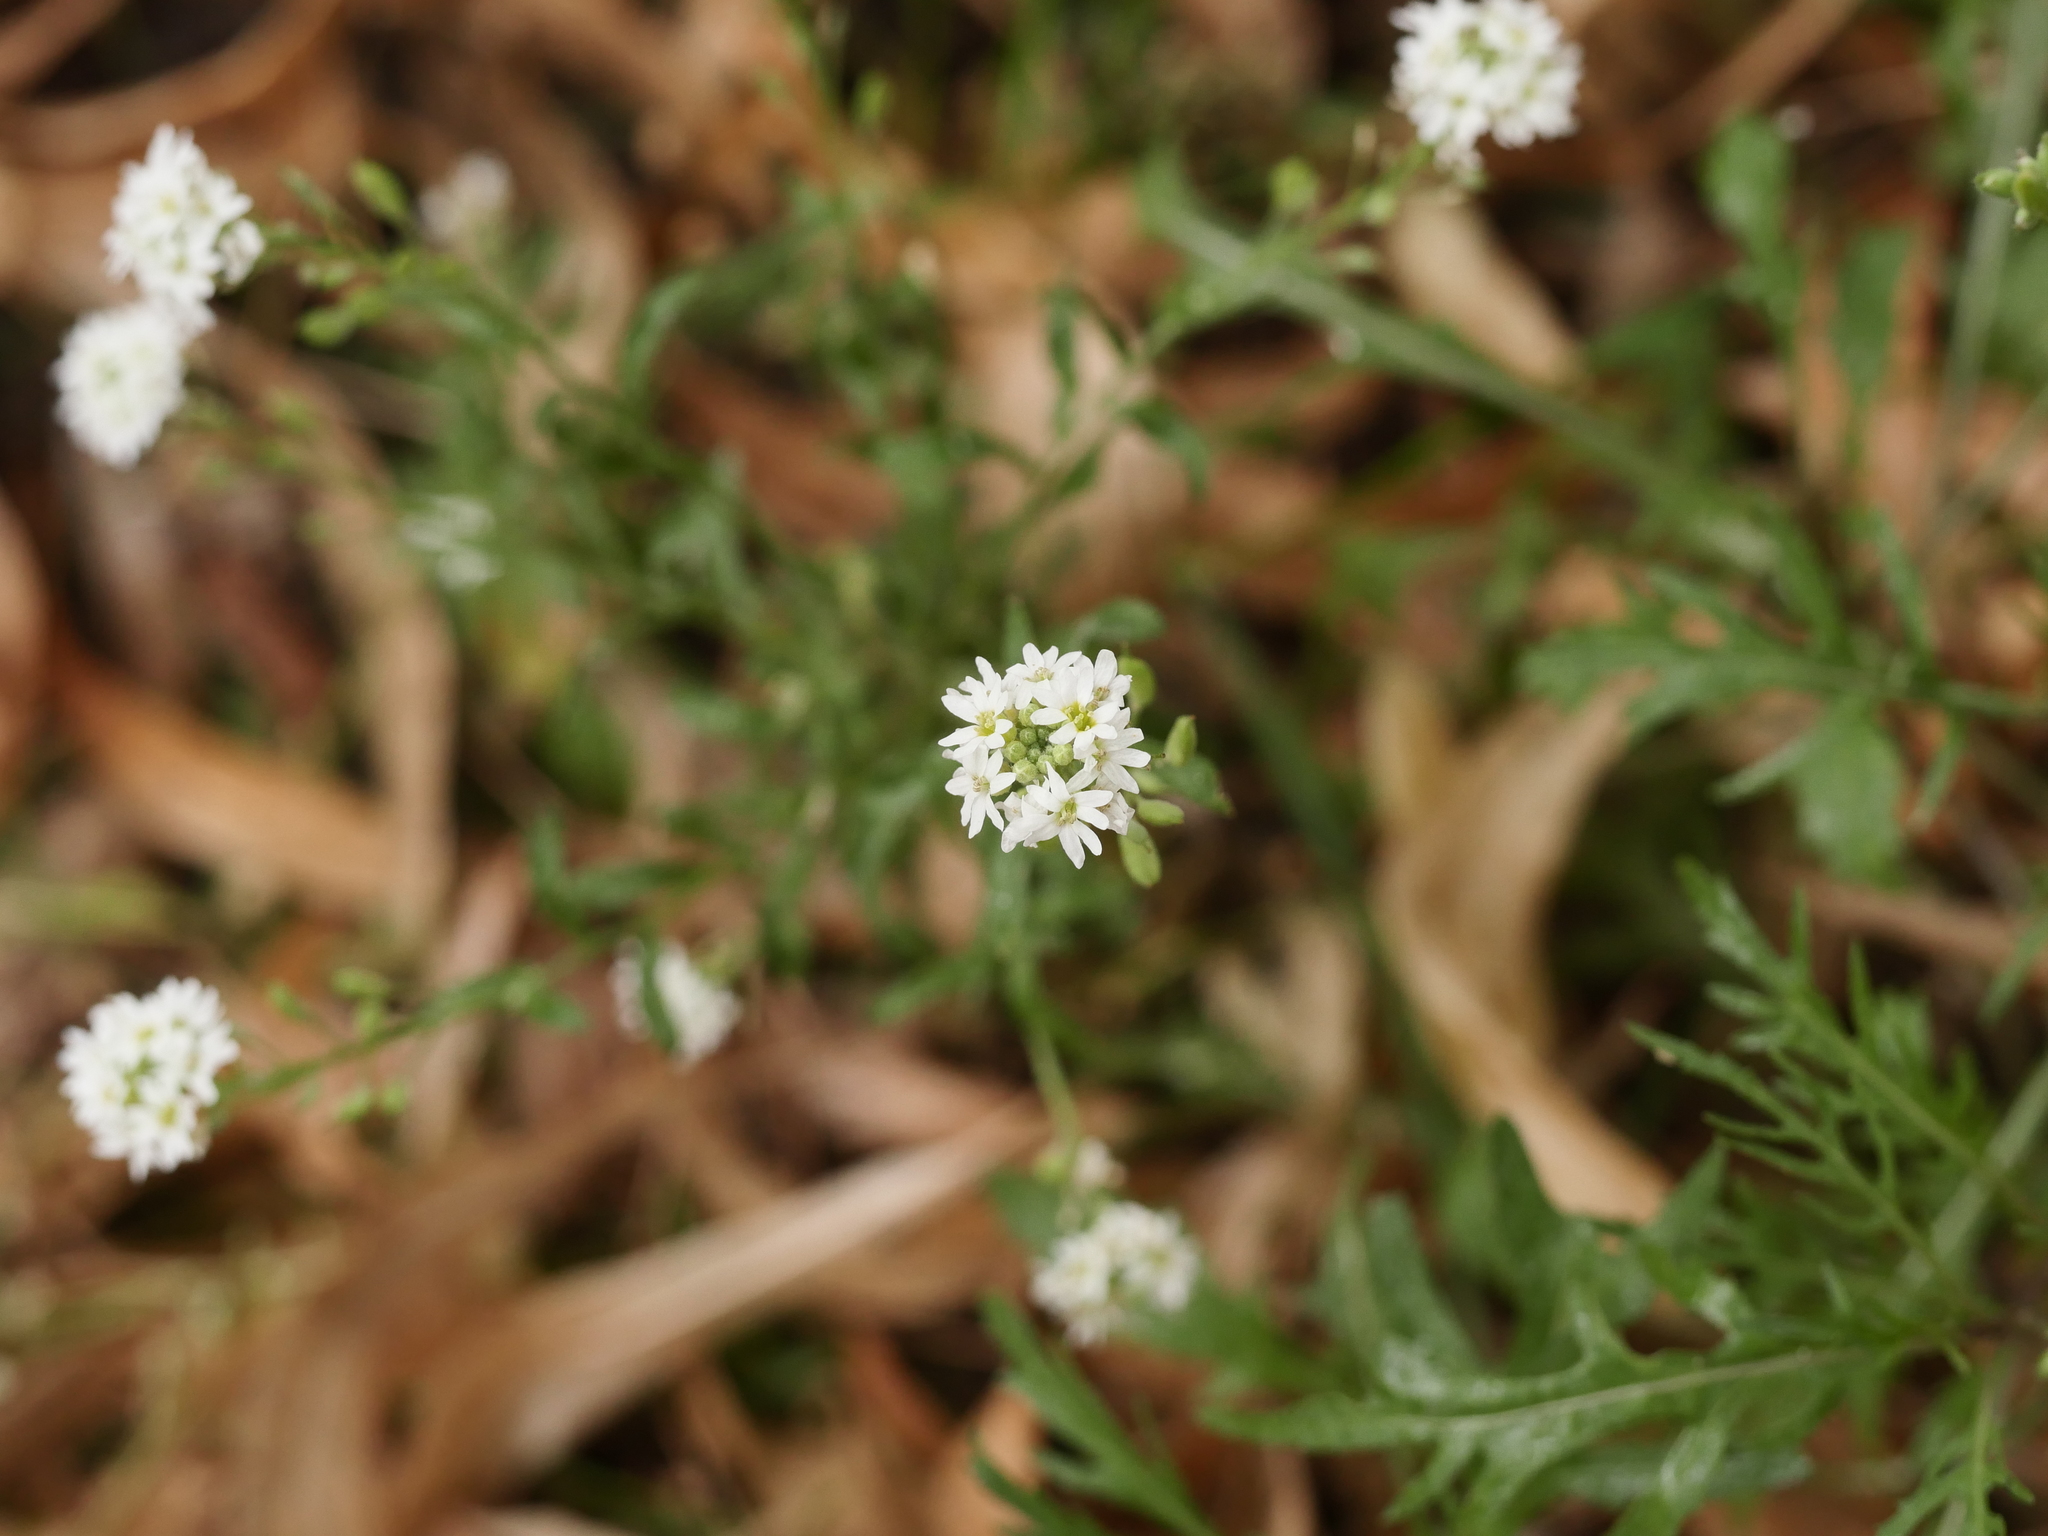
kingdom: Plantae
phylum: Tracheophyta
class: Magnoliopsida
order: Brassicales
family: Brassicaceae
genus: Berteroa
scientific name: Berteroa incana
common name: Hoary alison
